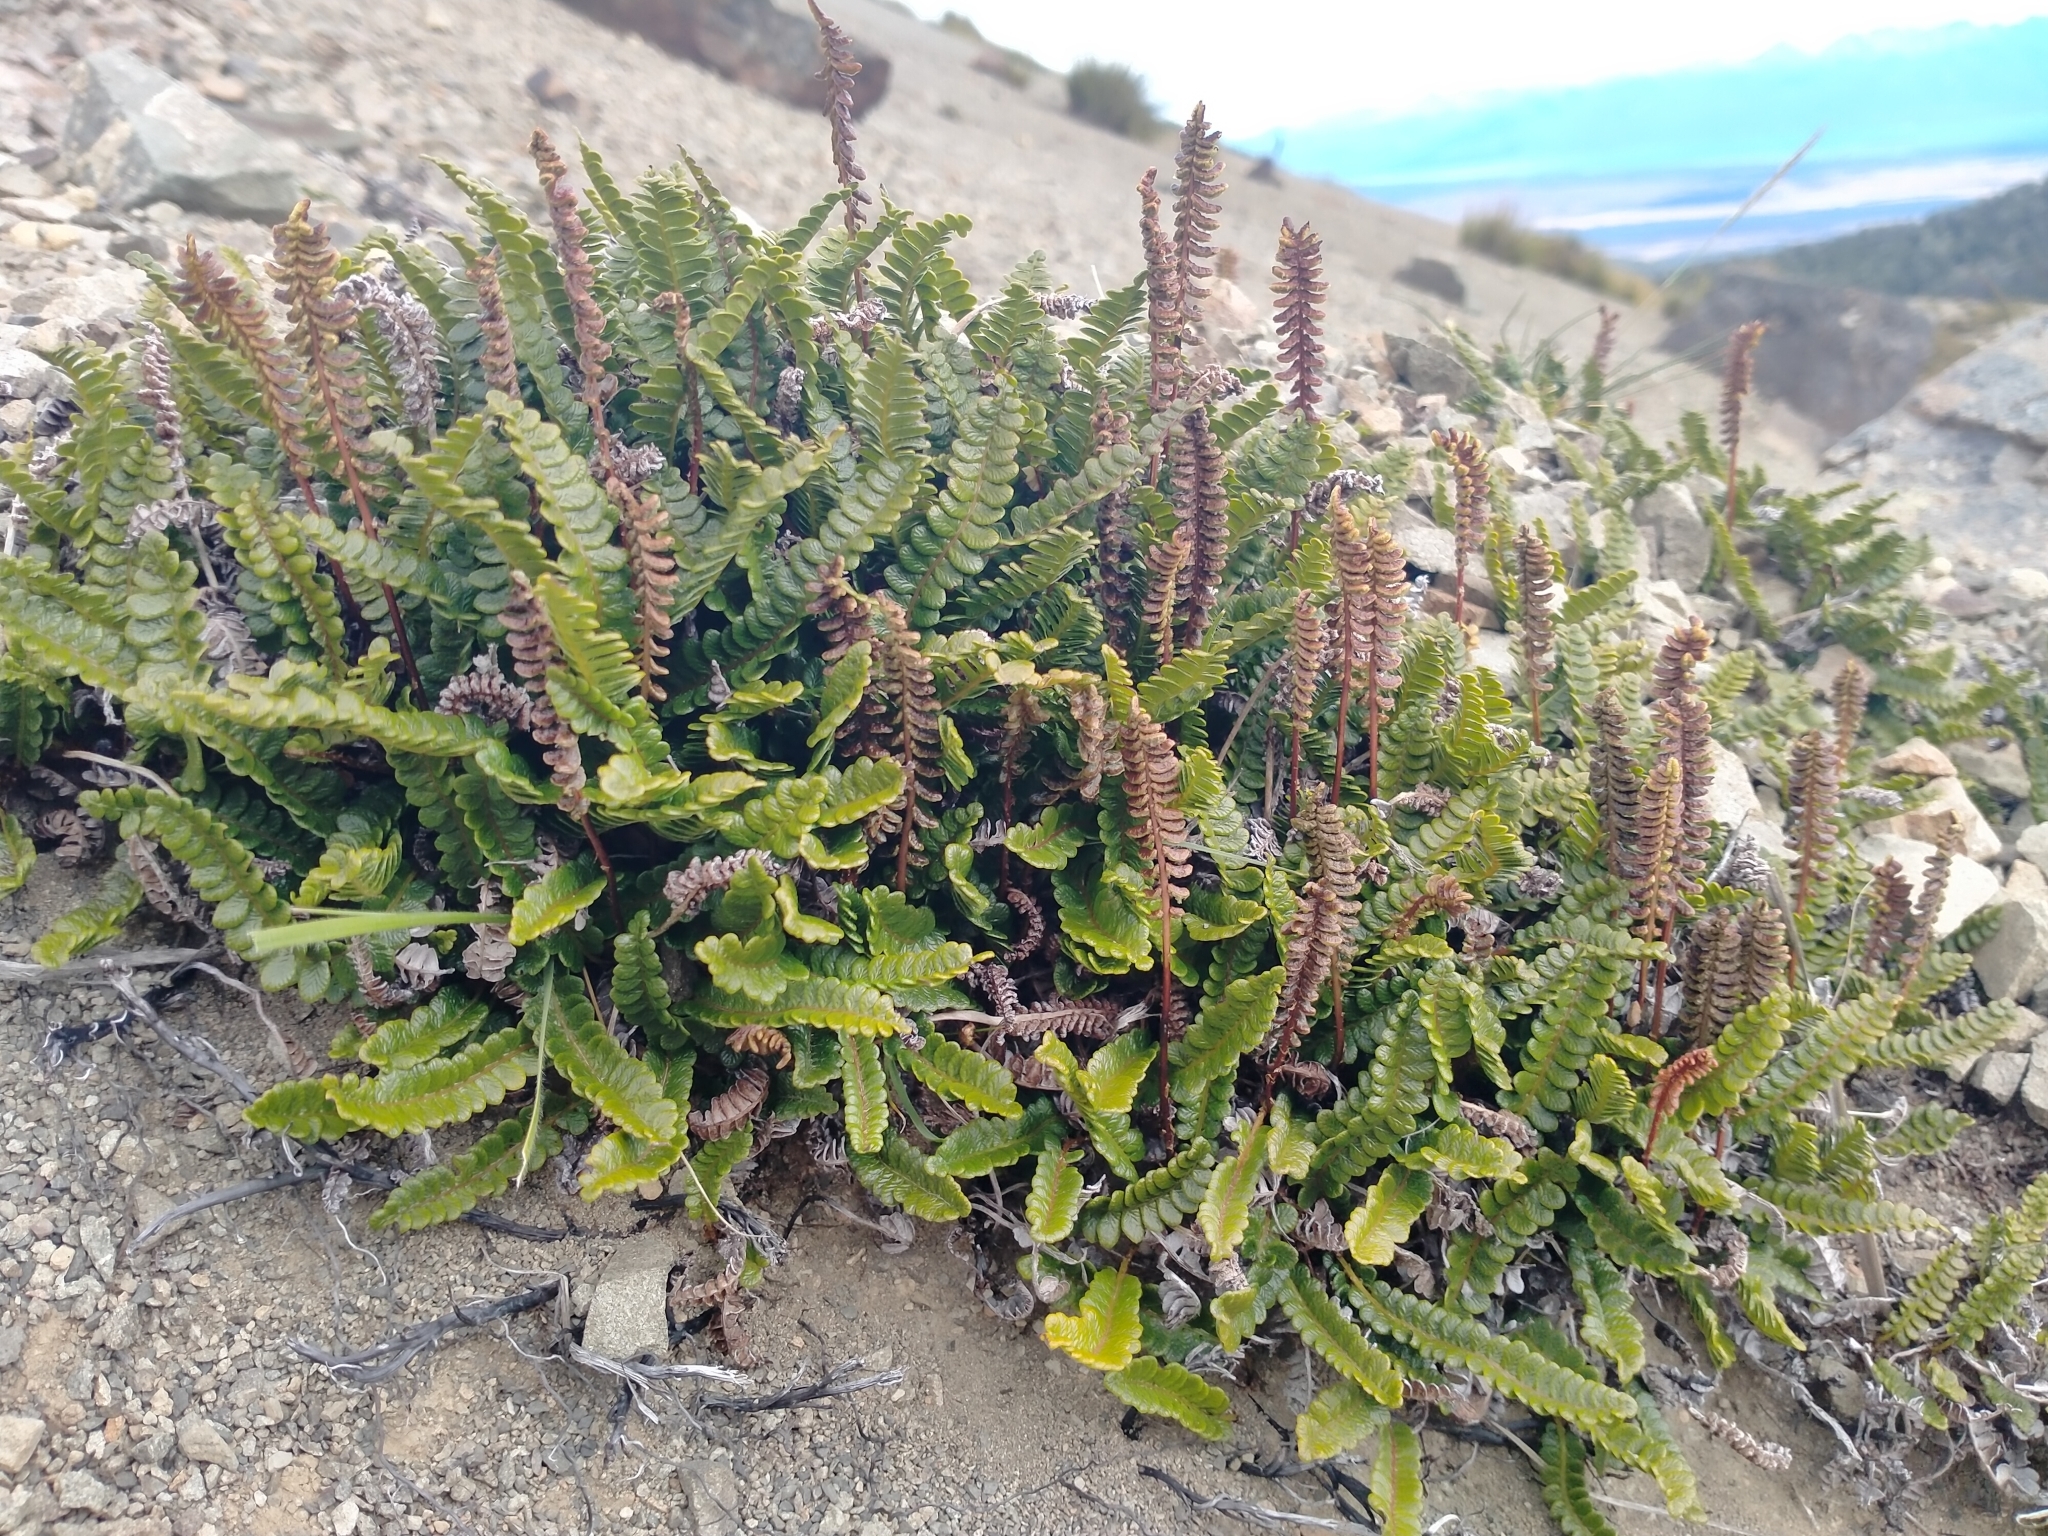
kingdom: Plantae
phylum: Tracheophyta
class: Polypodiopsida
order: Polypodiales
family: Blechnaceae
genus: Austroblechnum
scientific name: Austroblechnum penna-marina
